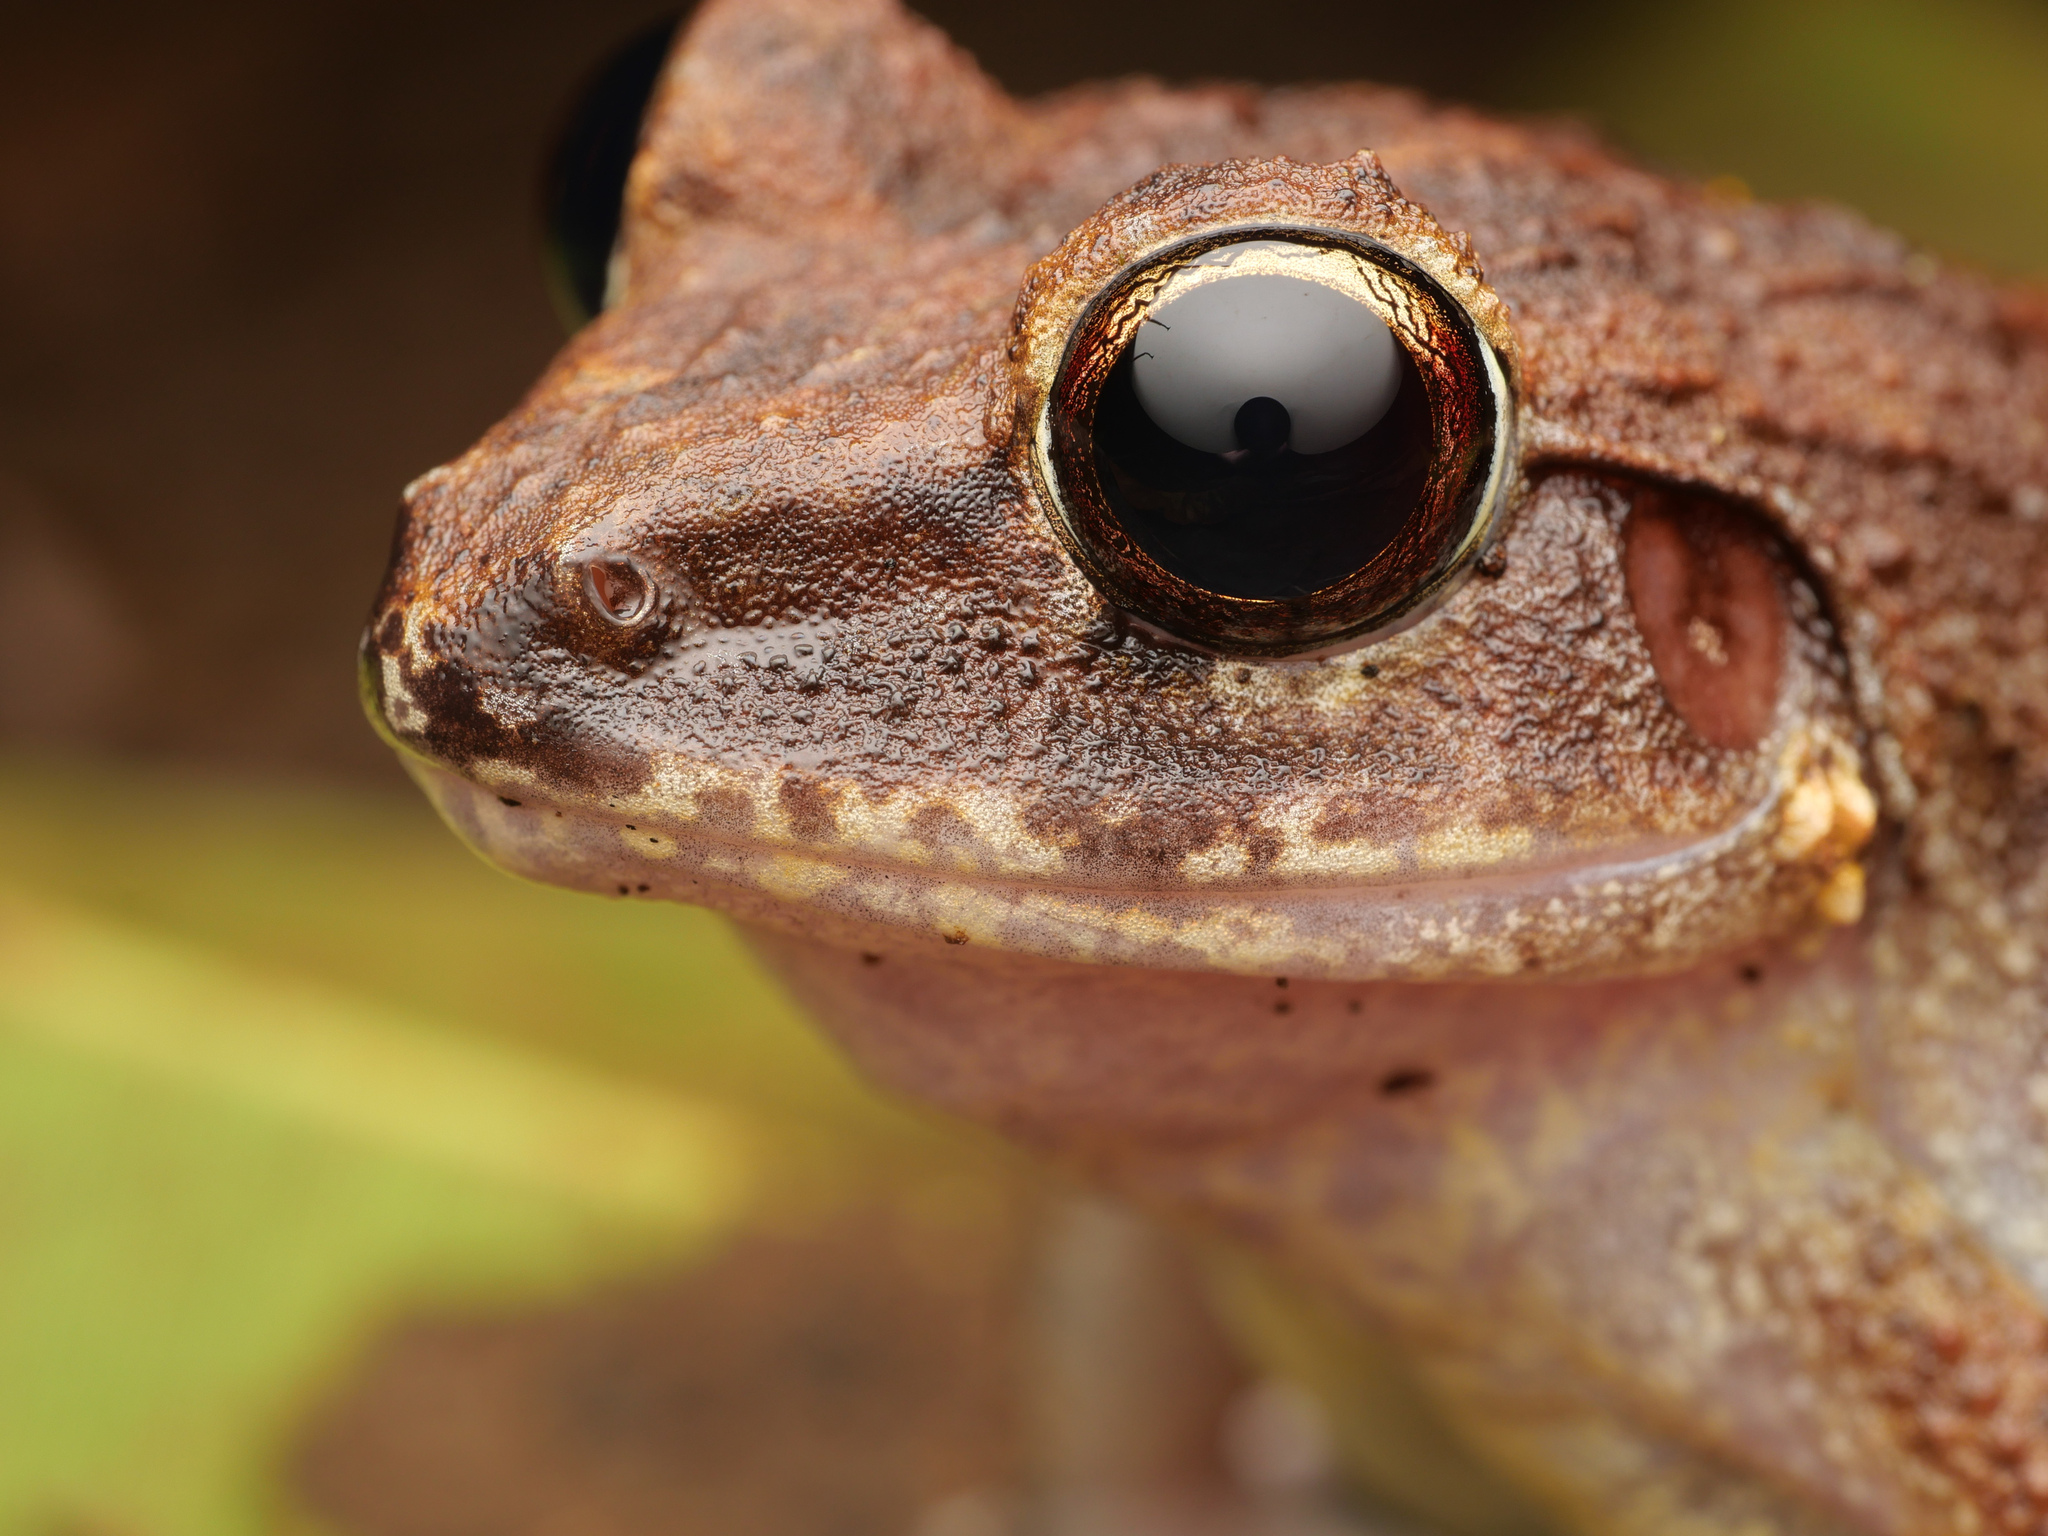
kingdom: Animalia
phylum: Chordata
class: Amphibia
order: Anura
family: Ceratobatrachidae
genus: Cornufer
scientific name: Cornufer papuensis
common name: Papua wrinkled ground frog
